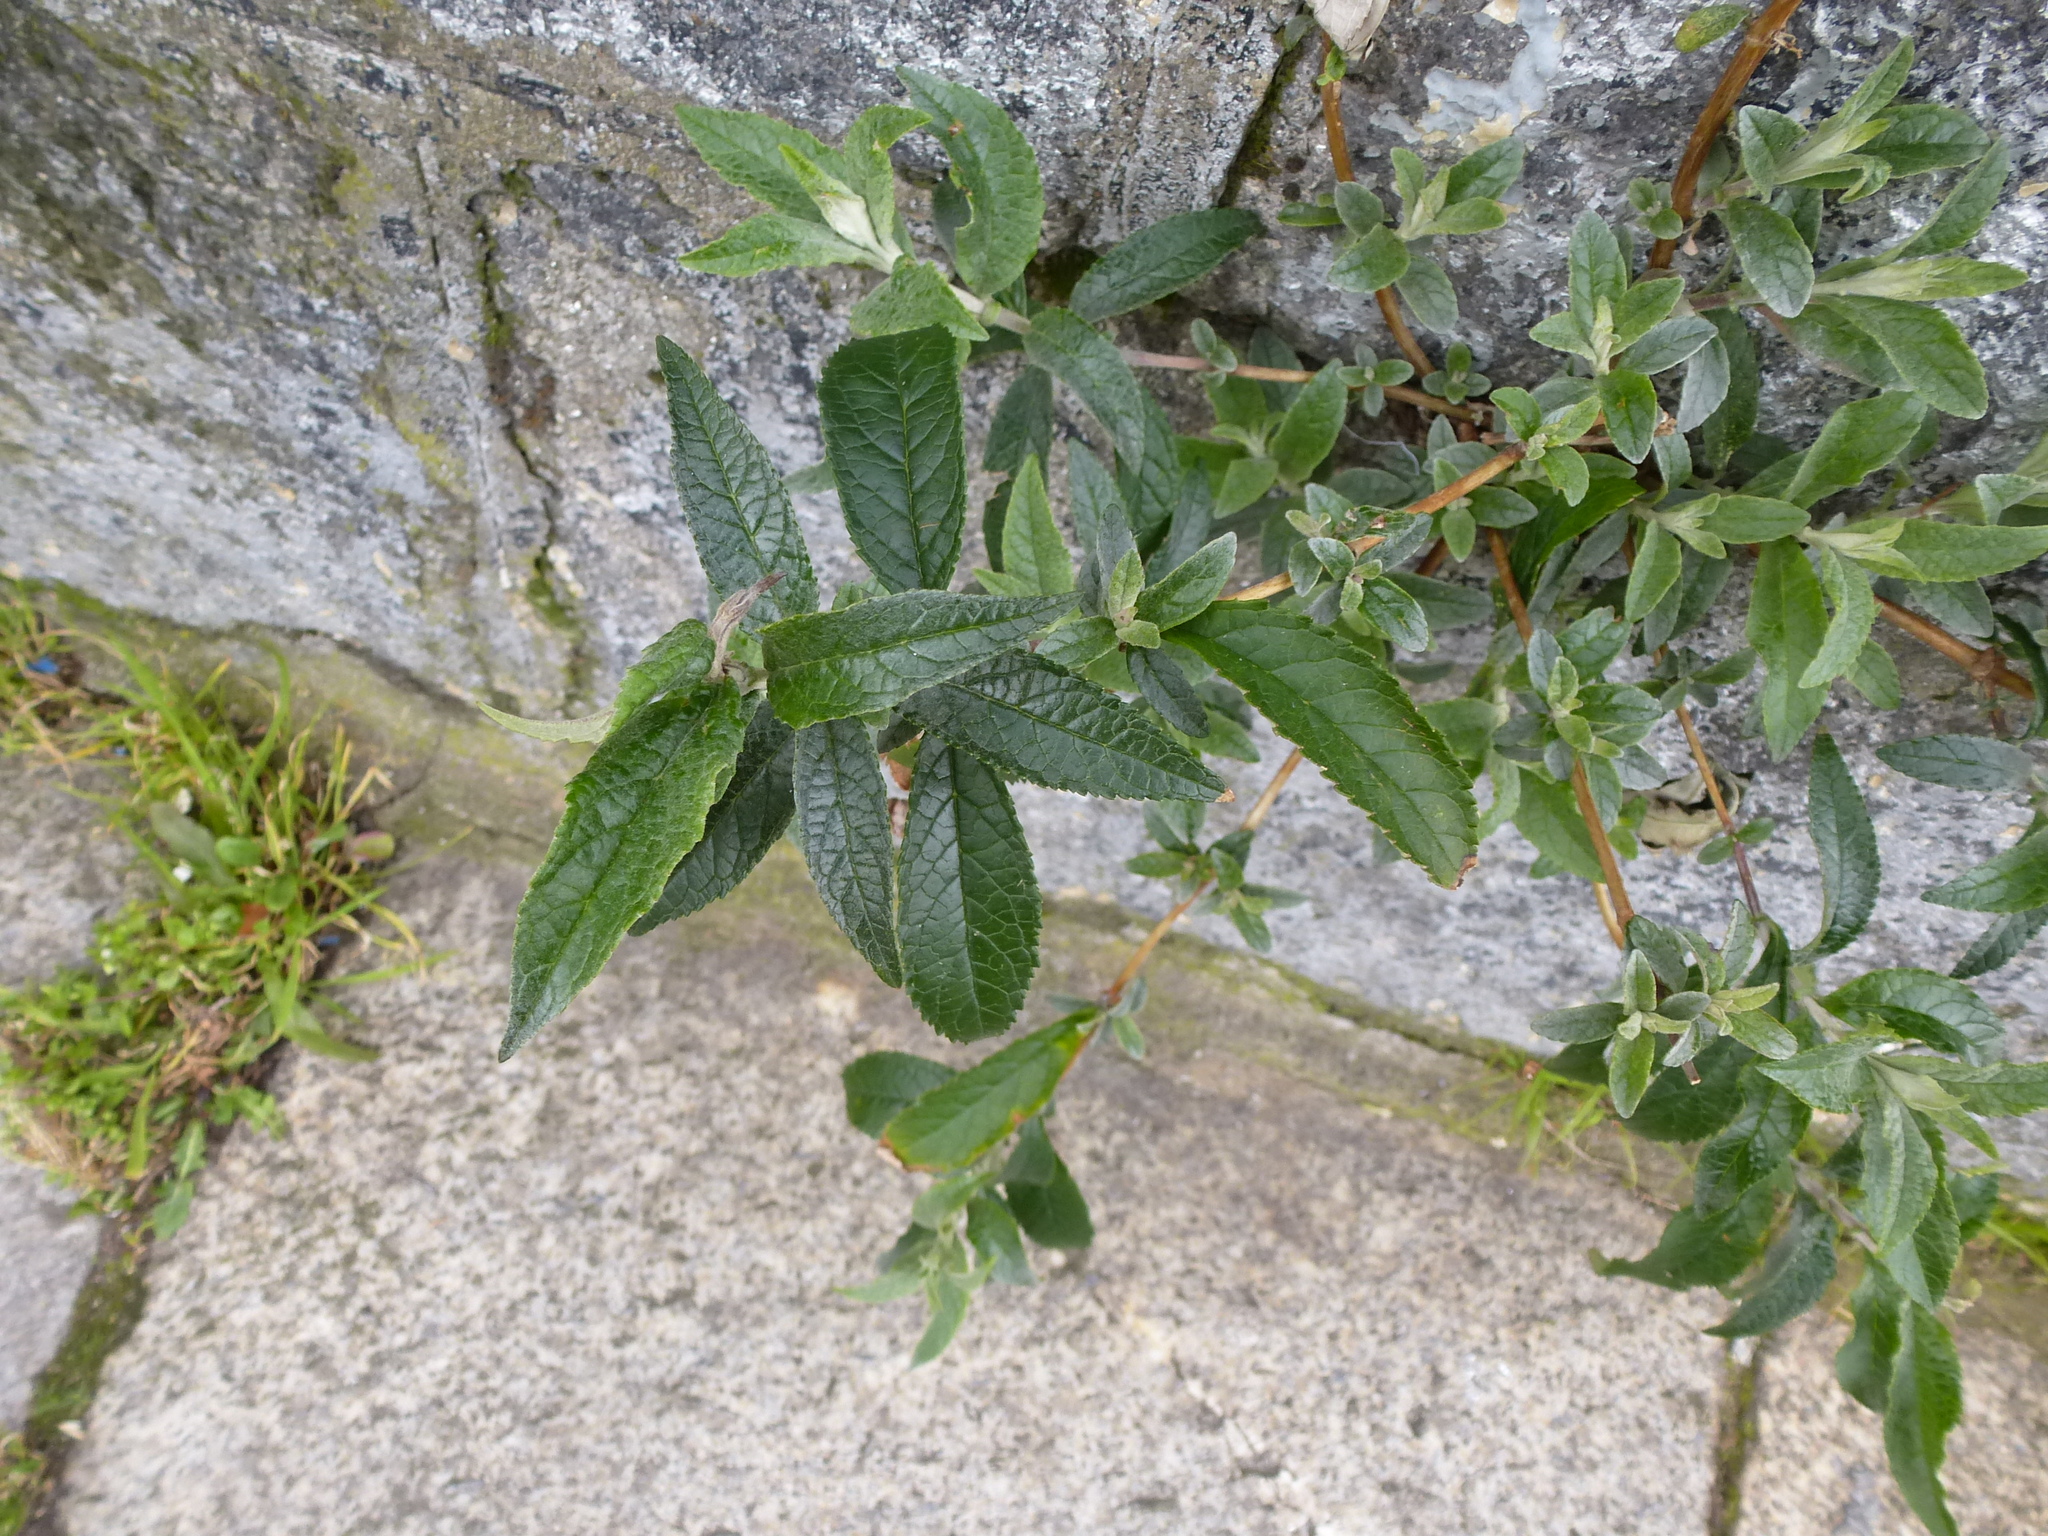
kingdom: Plantae
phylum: Tracheophyta
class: Magnoliopsida
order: Lamiales
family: Scrophulariaceae
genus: Buddleja
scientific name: Buddleja davidii
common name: Butterfly-bush
